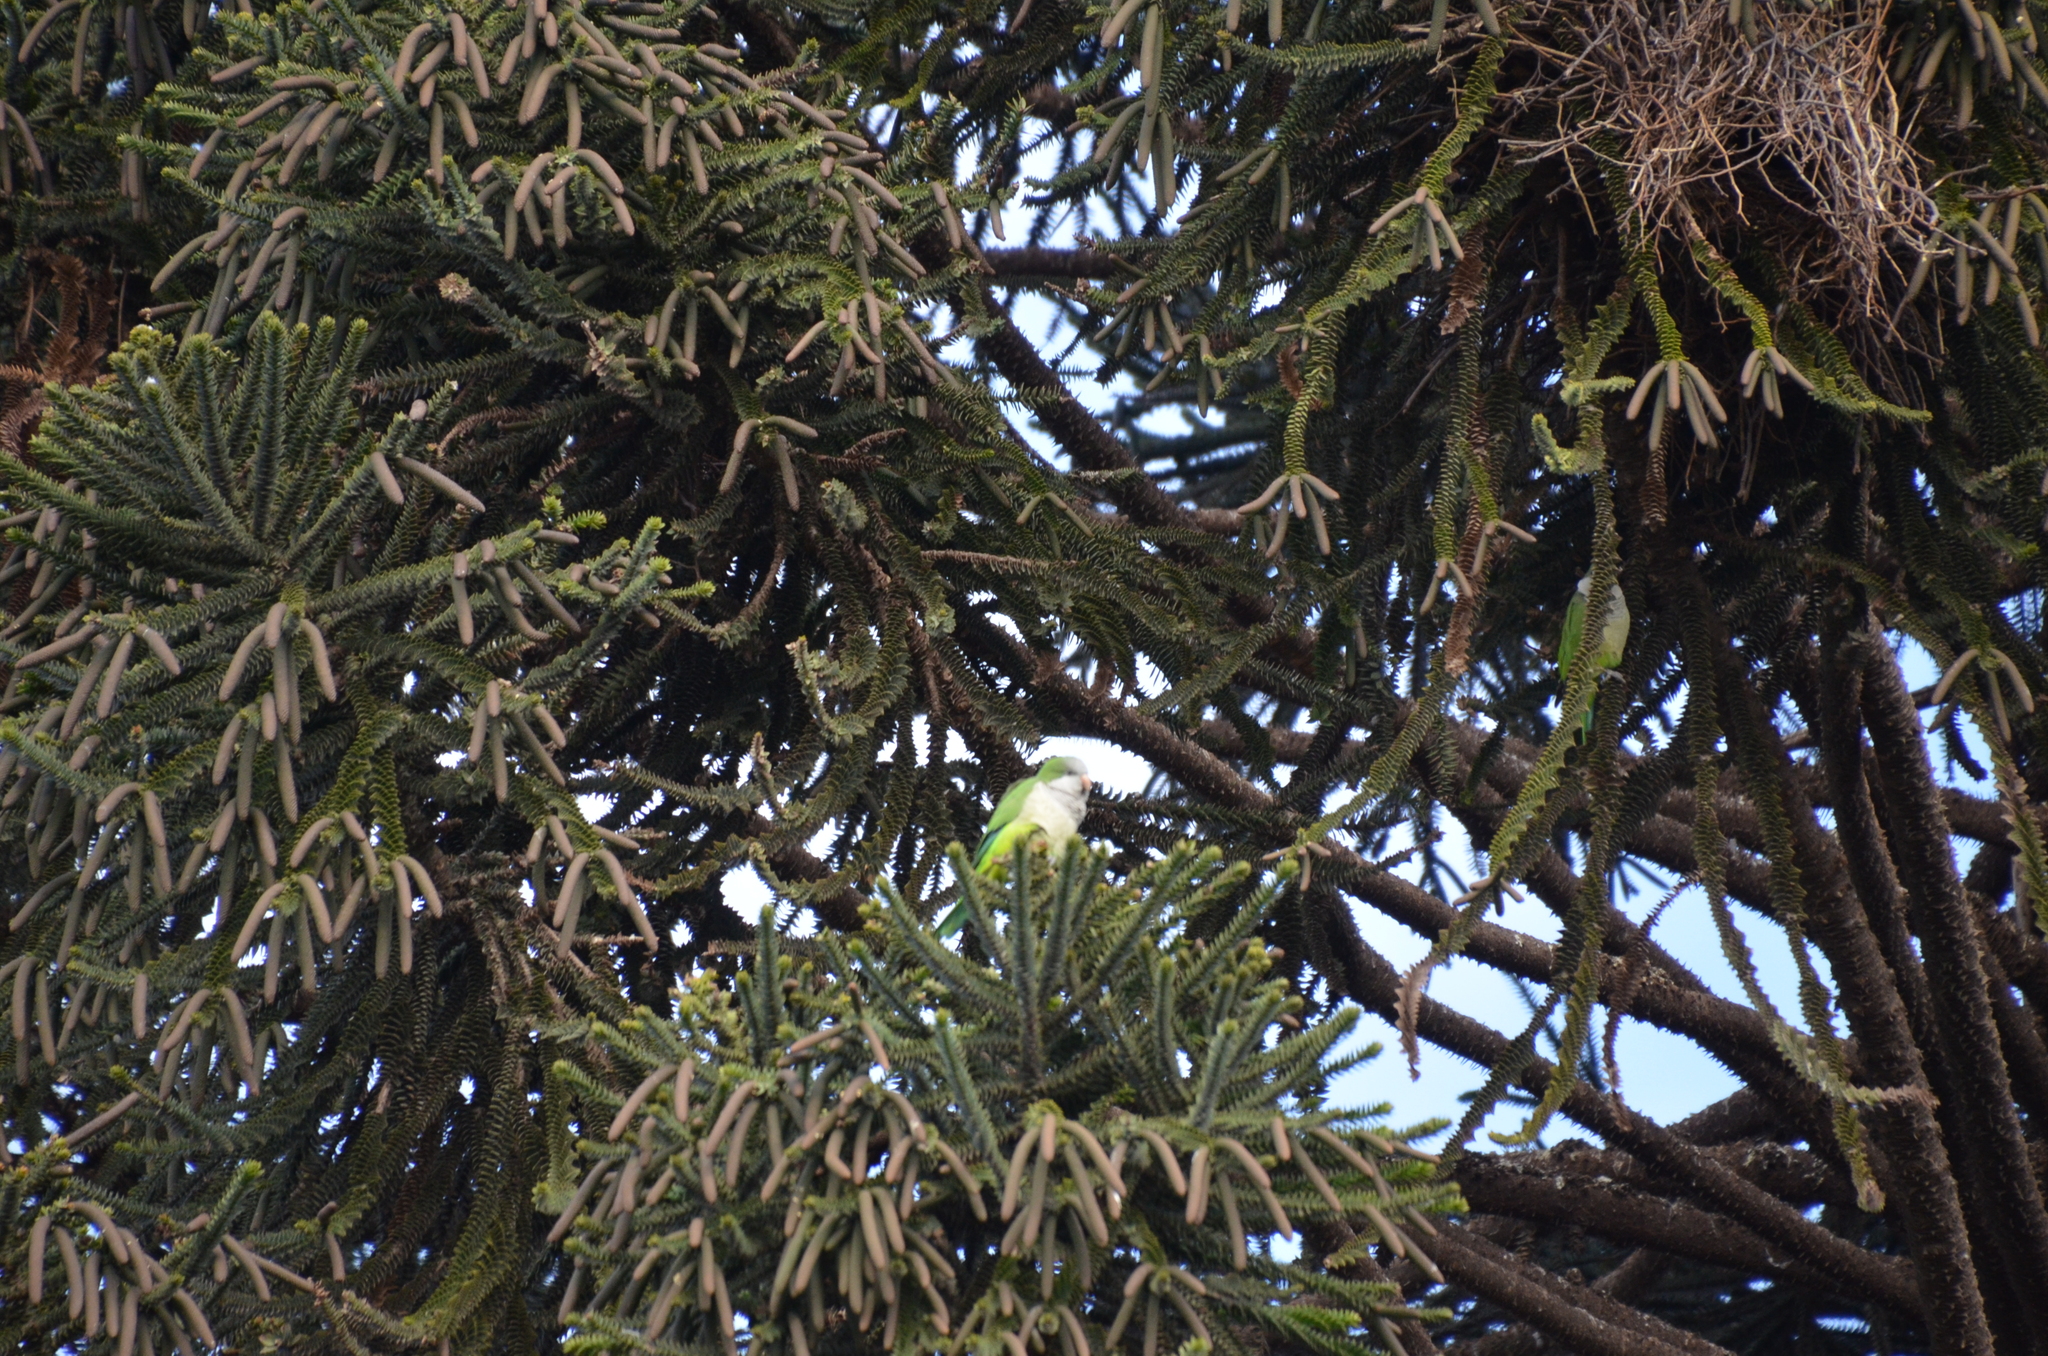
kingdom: Animalia
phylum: Chordata
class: Aves
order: Psittaciformes
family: Psittacidae
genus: Myiopsitta
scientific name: Myiopsitta monachus
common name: Monk parakeet
